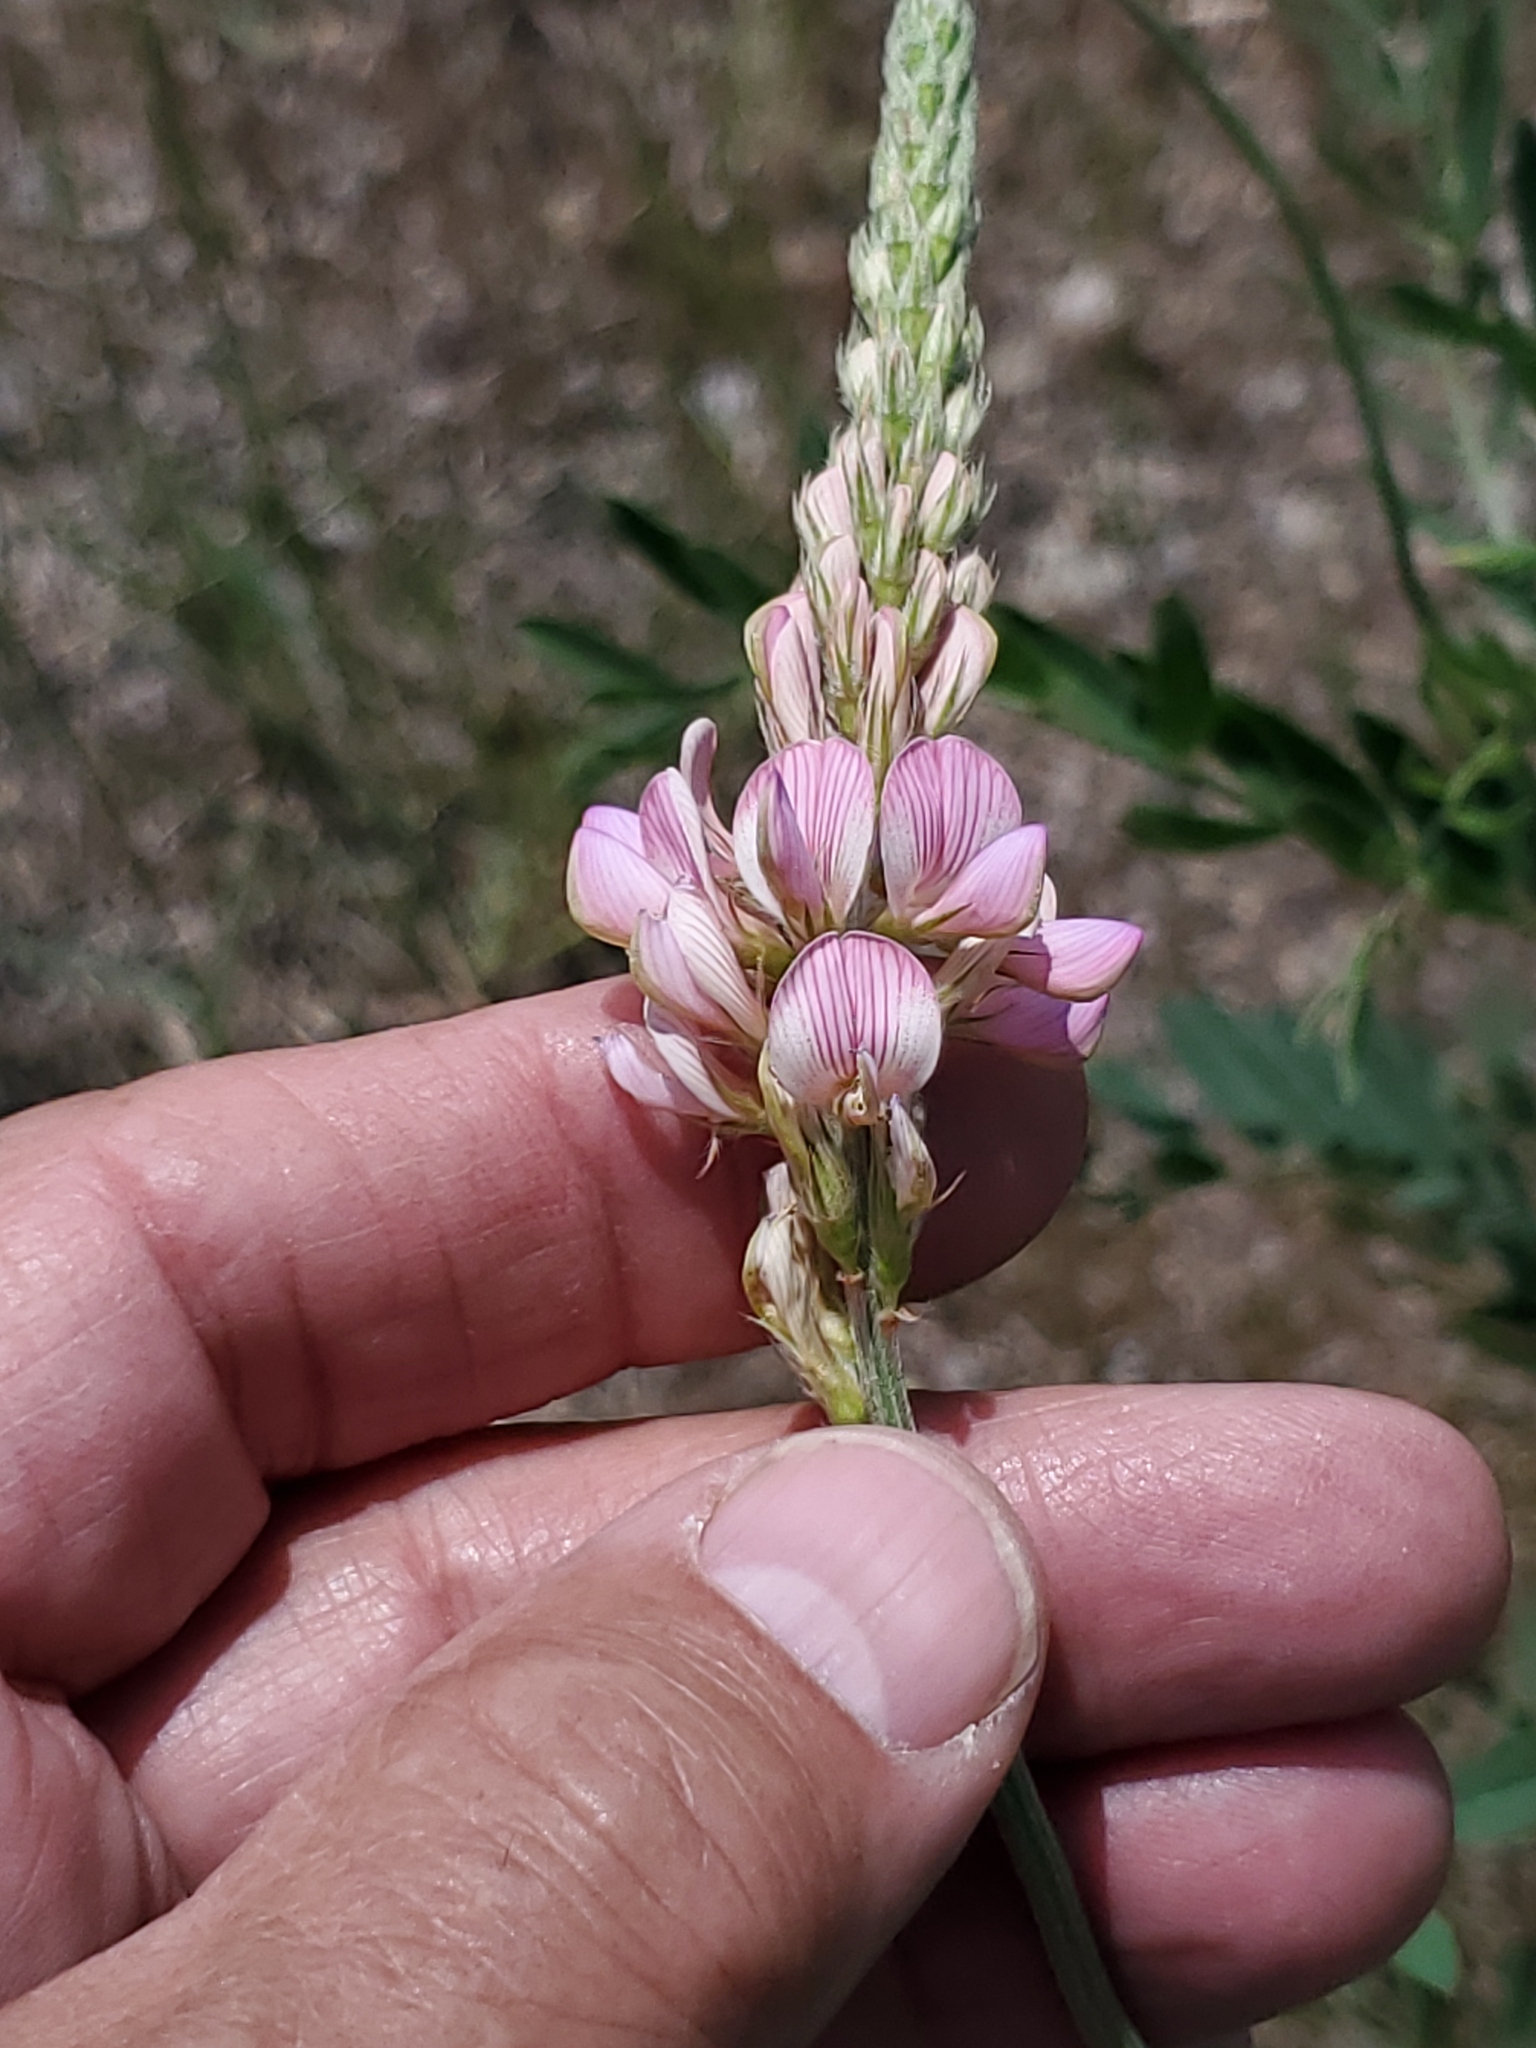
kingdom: Plantae
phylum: Tracheophyta
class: Magnoliopsida
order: Fabales
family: Fabaceae
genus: Onobrychis
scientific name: Onobrychis viciifolia
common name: Sainfoin
